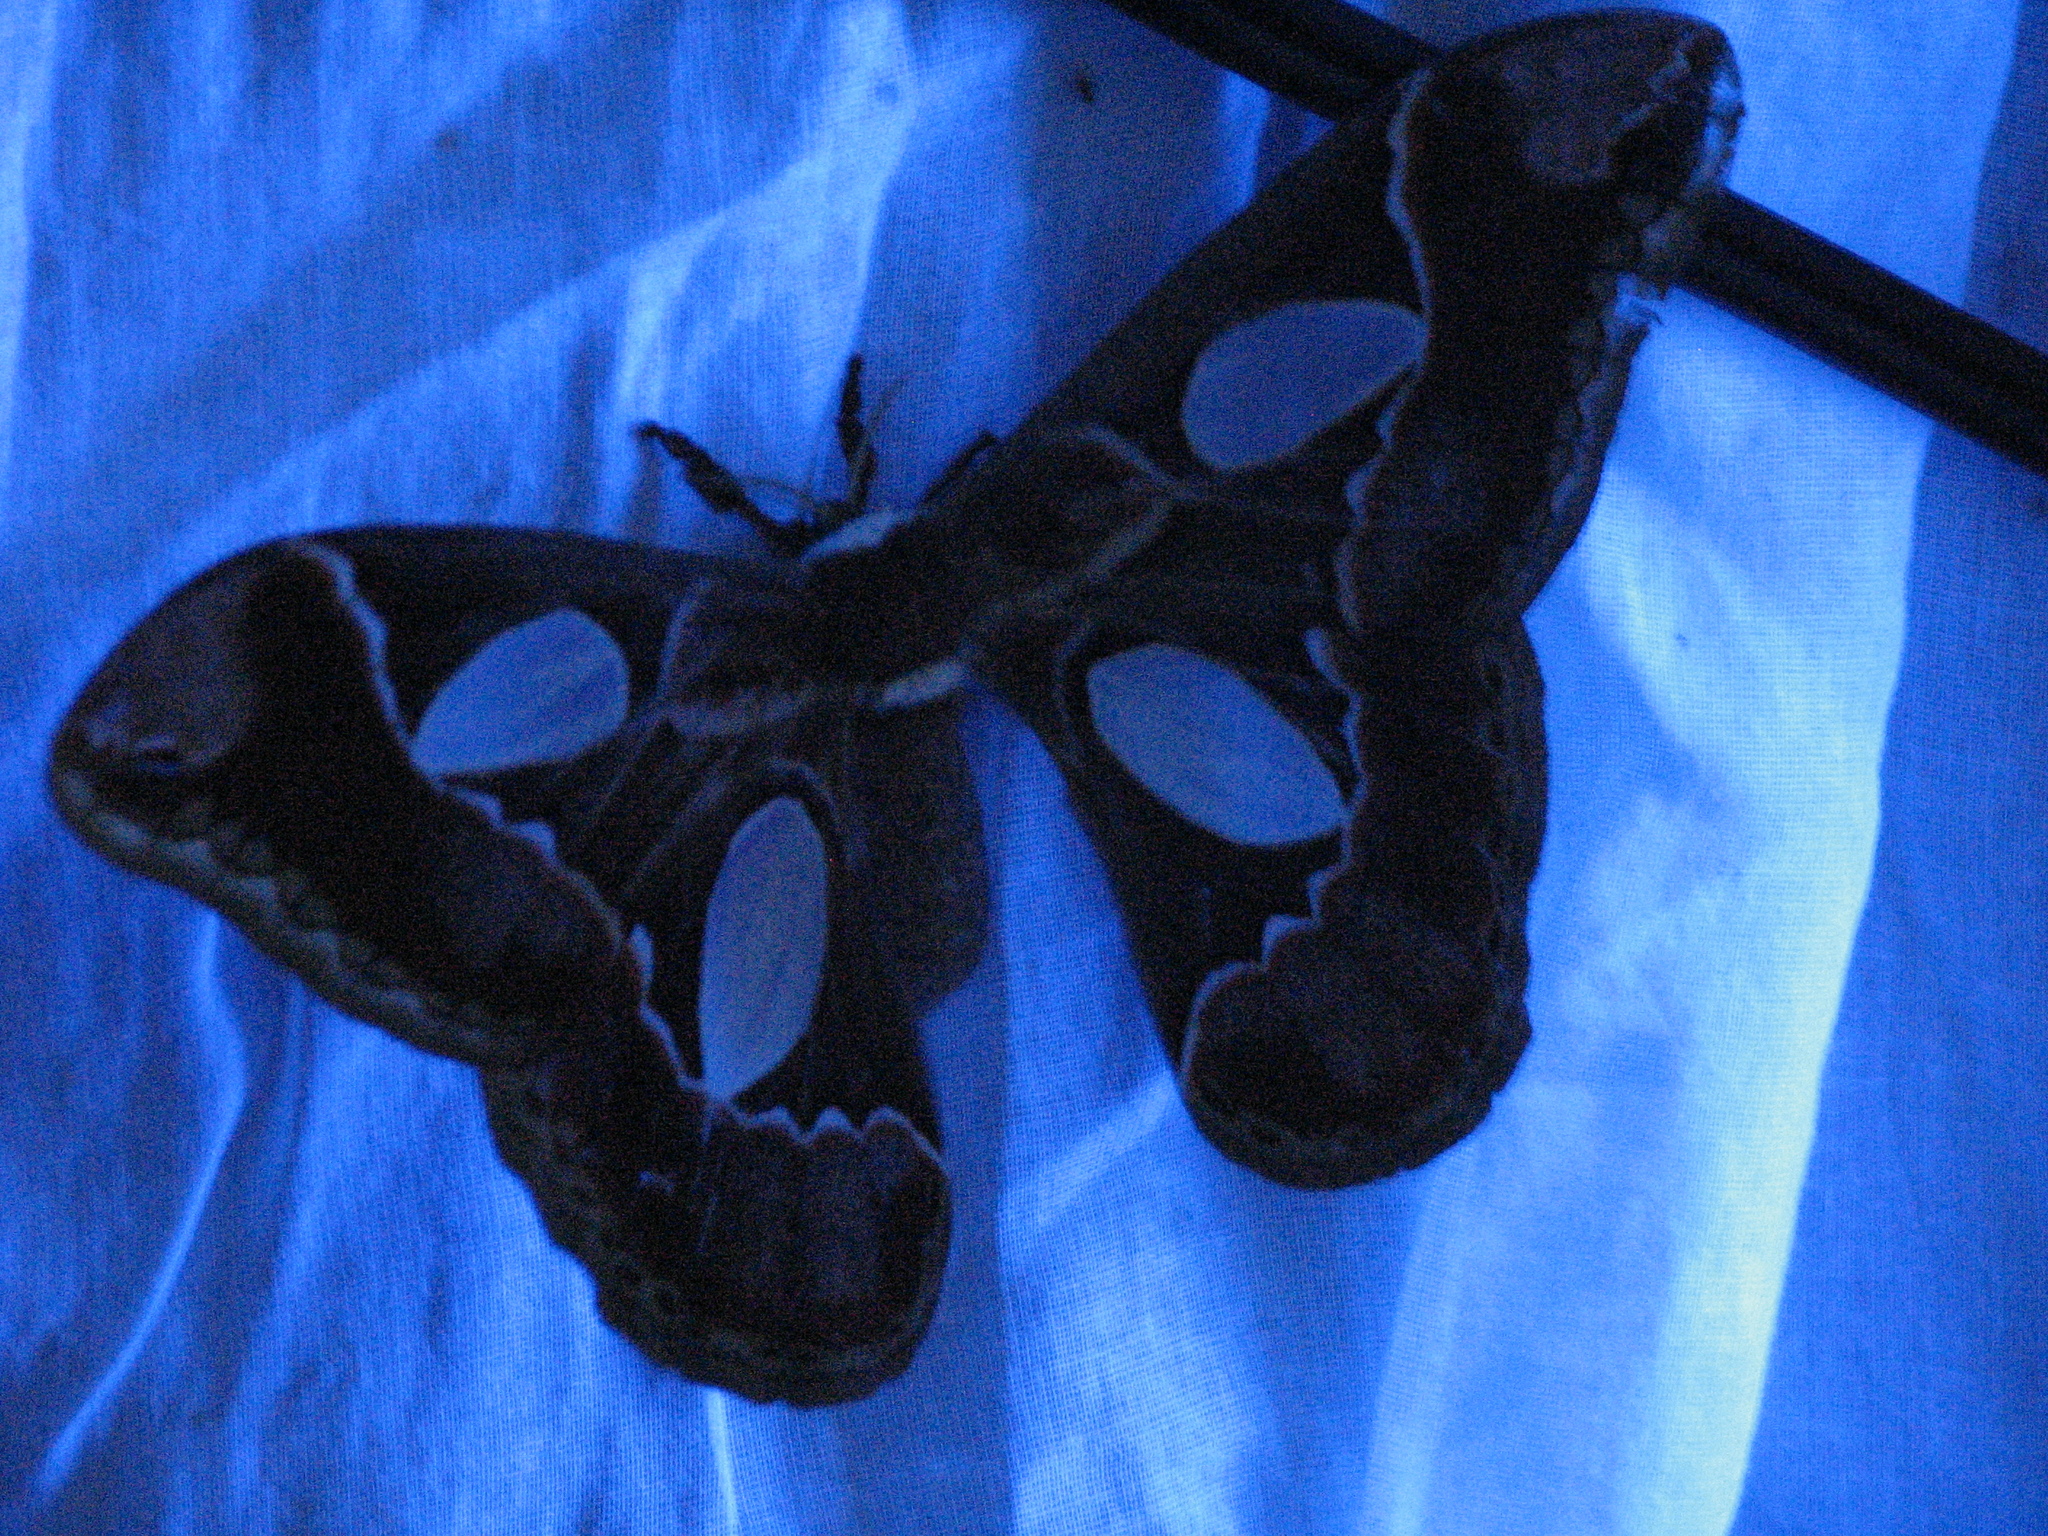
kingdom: Animalia
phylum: Arthropoda
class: Insecta
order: Lepidoptera
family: Saturniidae
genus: Rothschildia
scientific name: Rothschildia lebeau
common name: Lebeau's rothschildia
